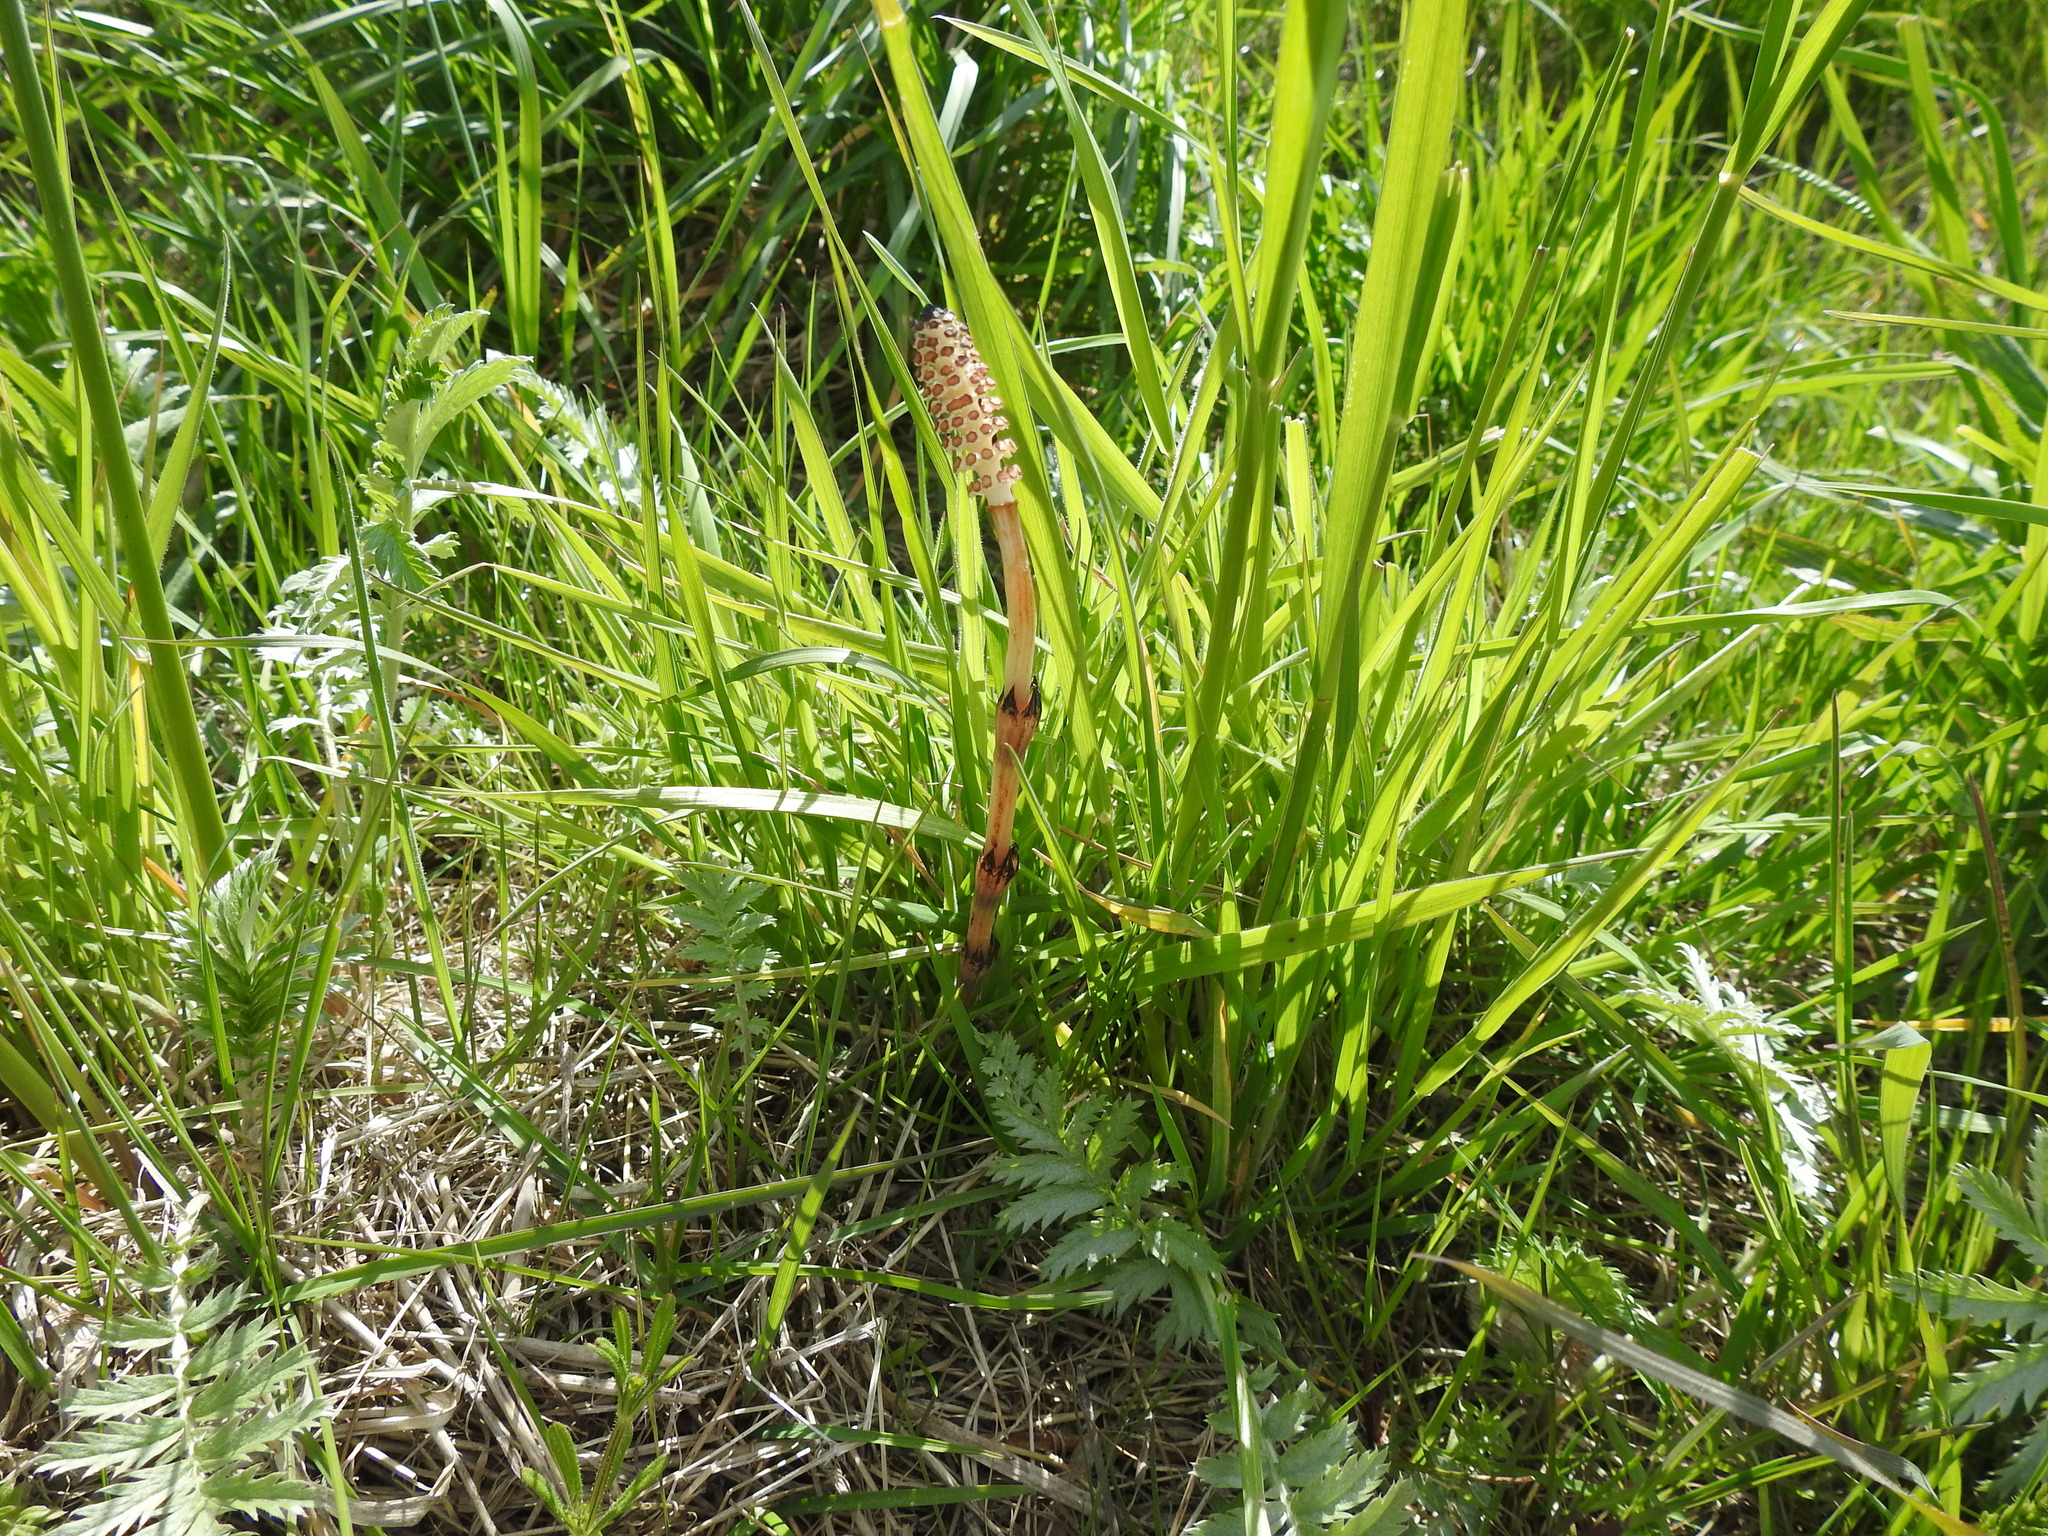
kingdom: Plantae
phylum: Tracheophyta
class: Polypodiopsida
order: Equisetales
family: Equisetaceae
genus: Equisetum
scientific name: Equisetum arvense
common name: Field horsetail
